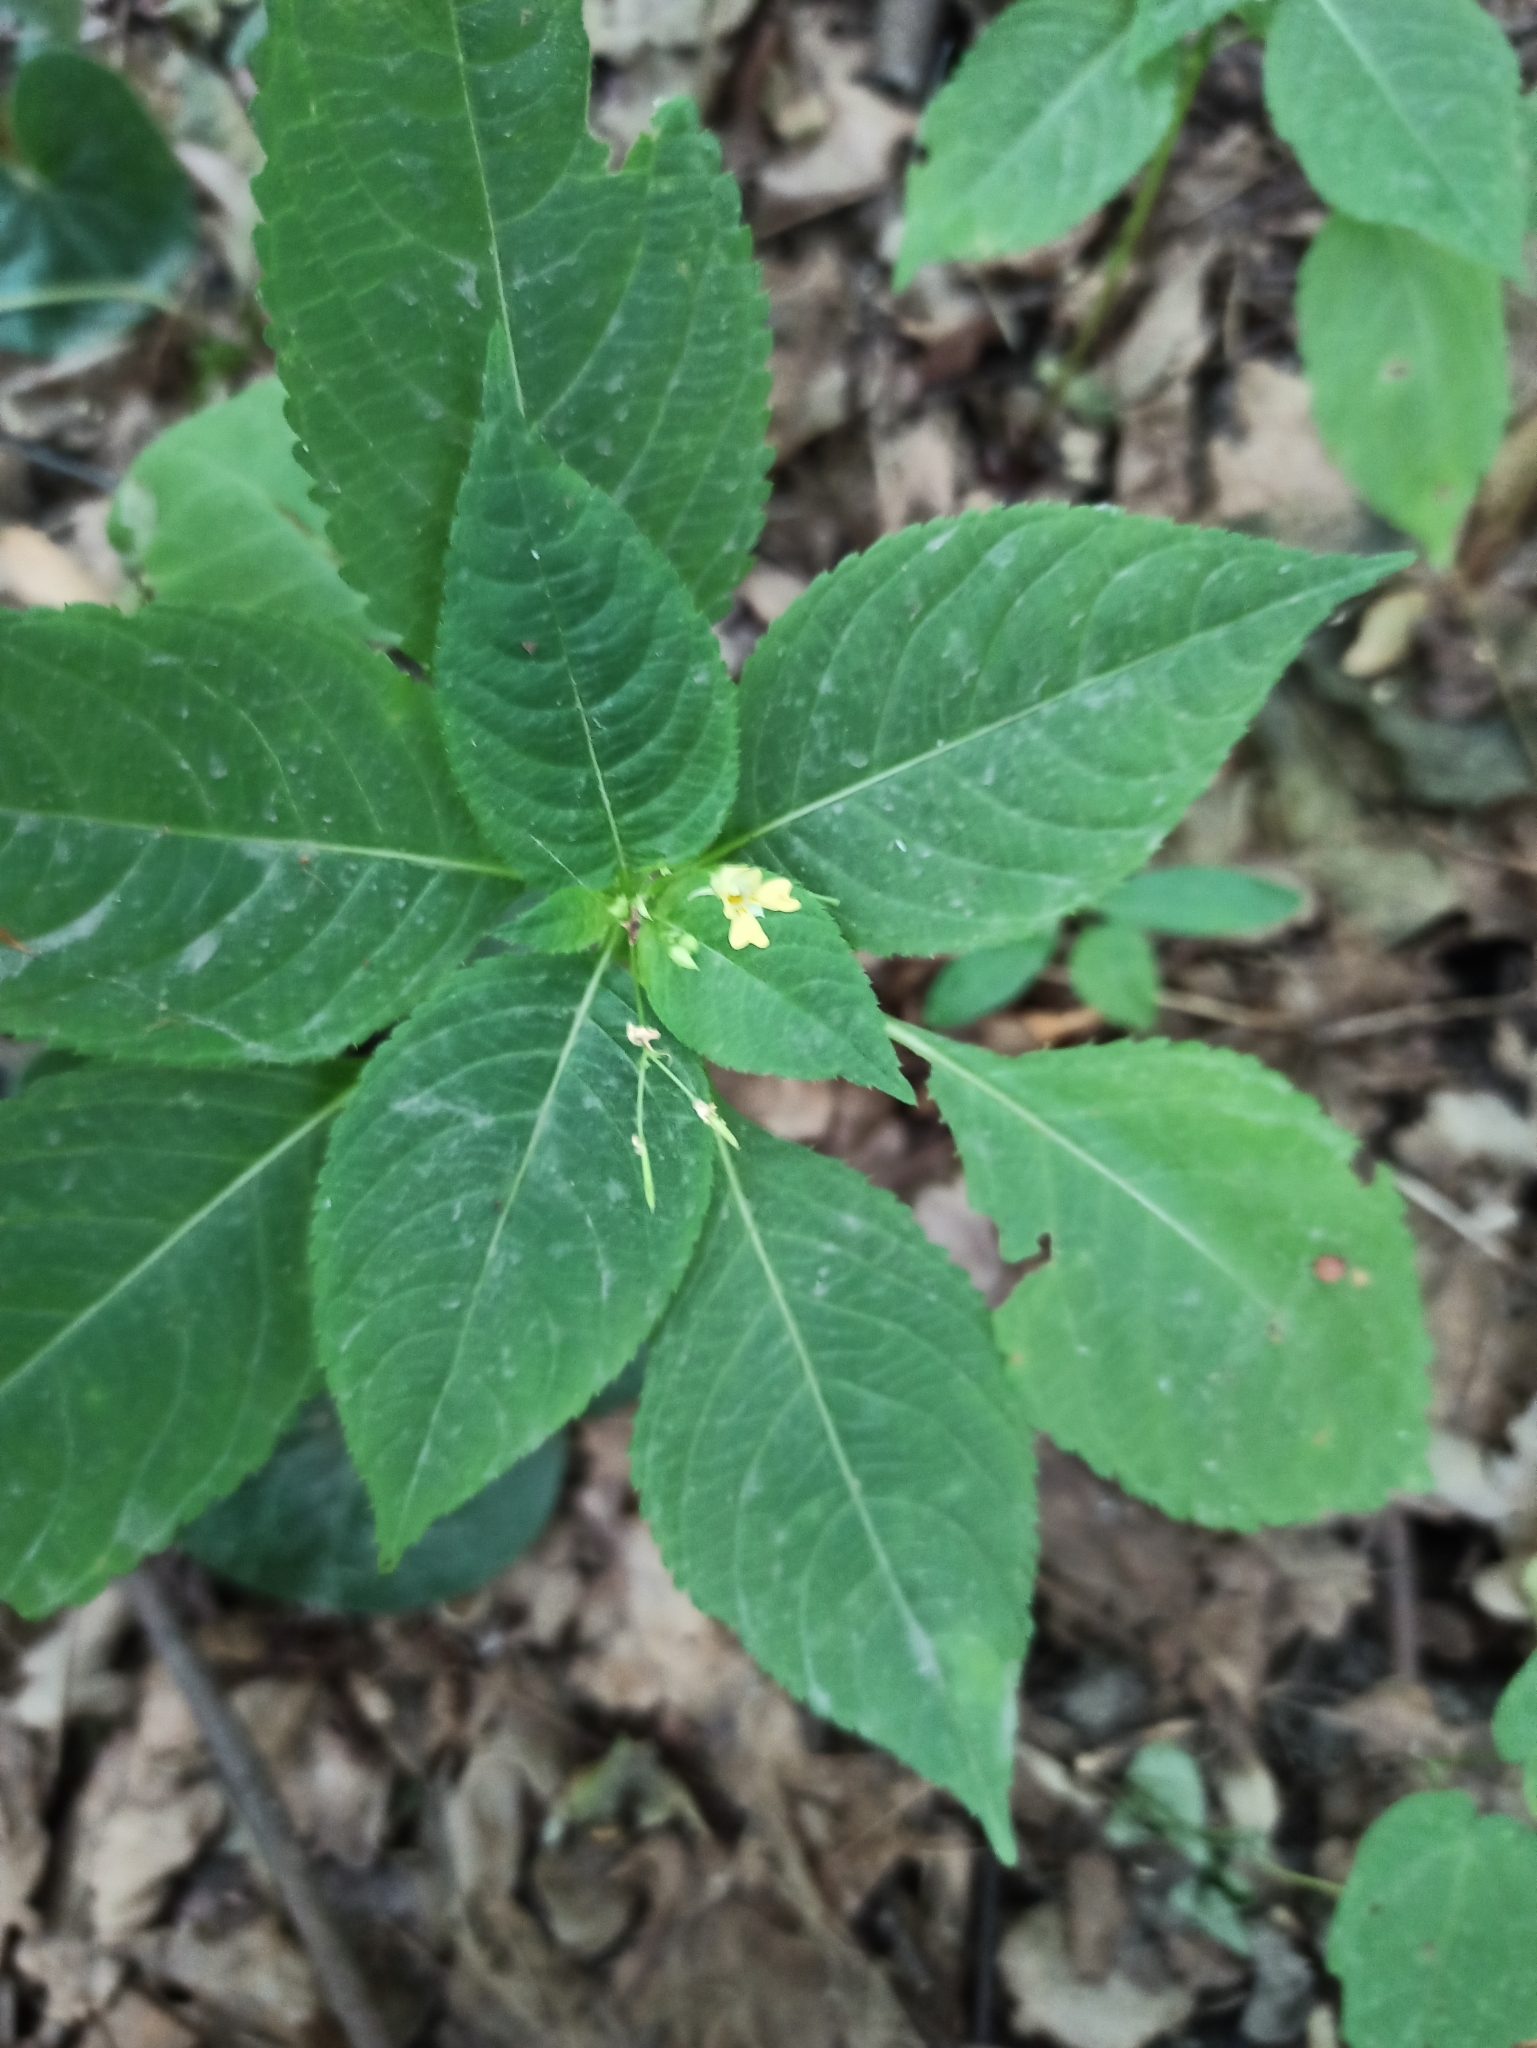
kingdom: Plantae
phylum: Tracheophyta
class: Magnoliopsida
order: Ericales
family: Balsaminaceae
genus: Impatiens
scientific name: Impatiens parviflora
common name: Small balsam
